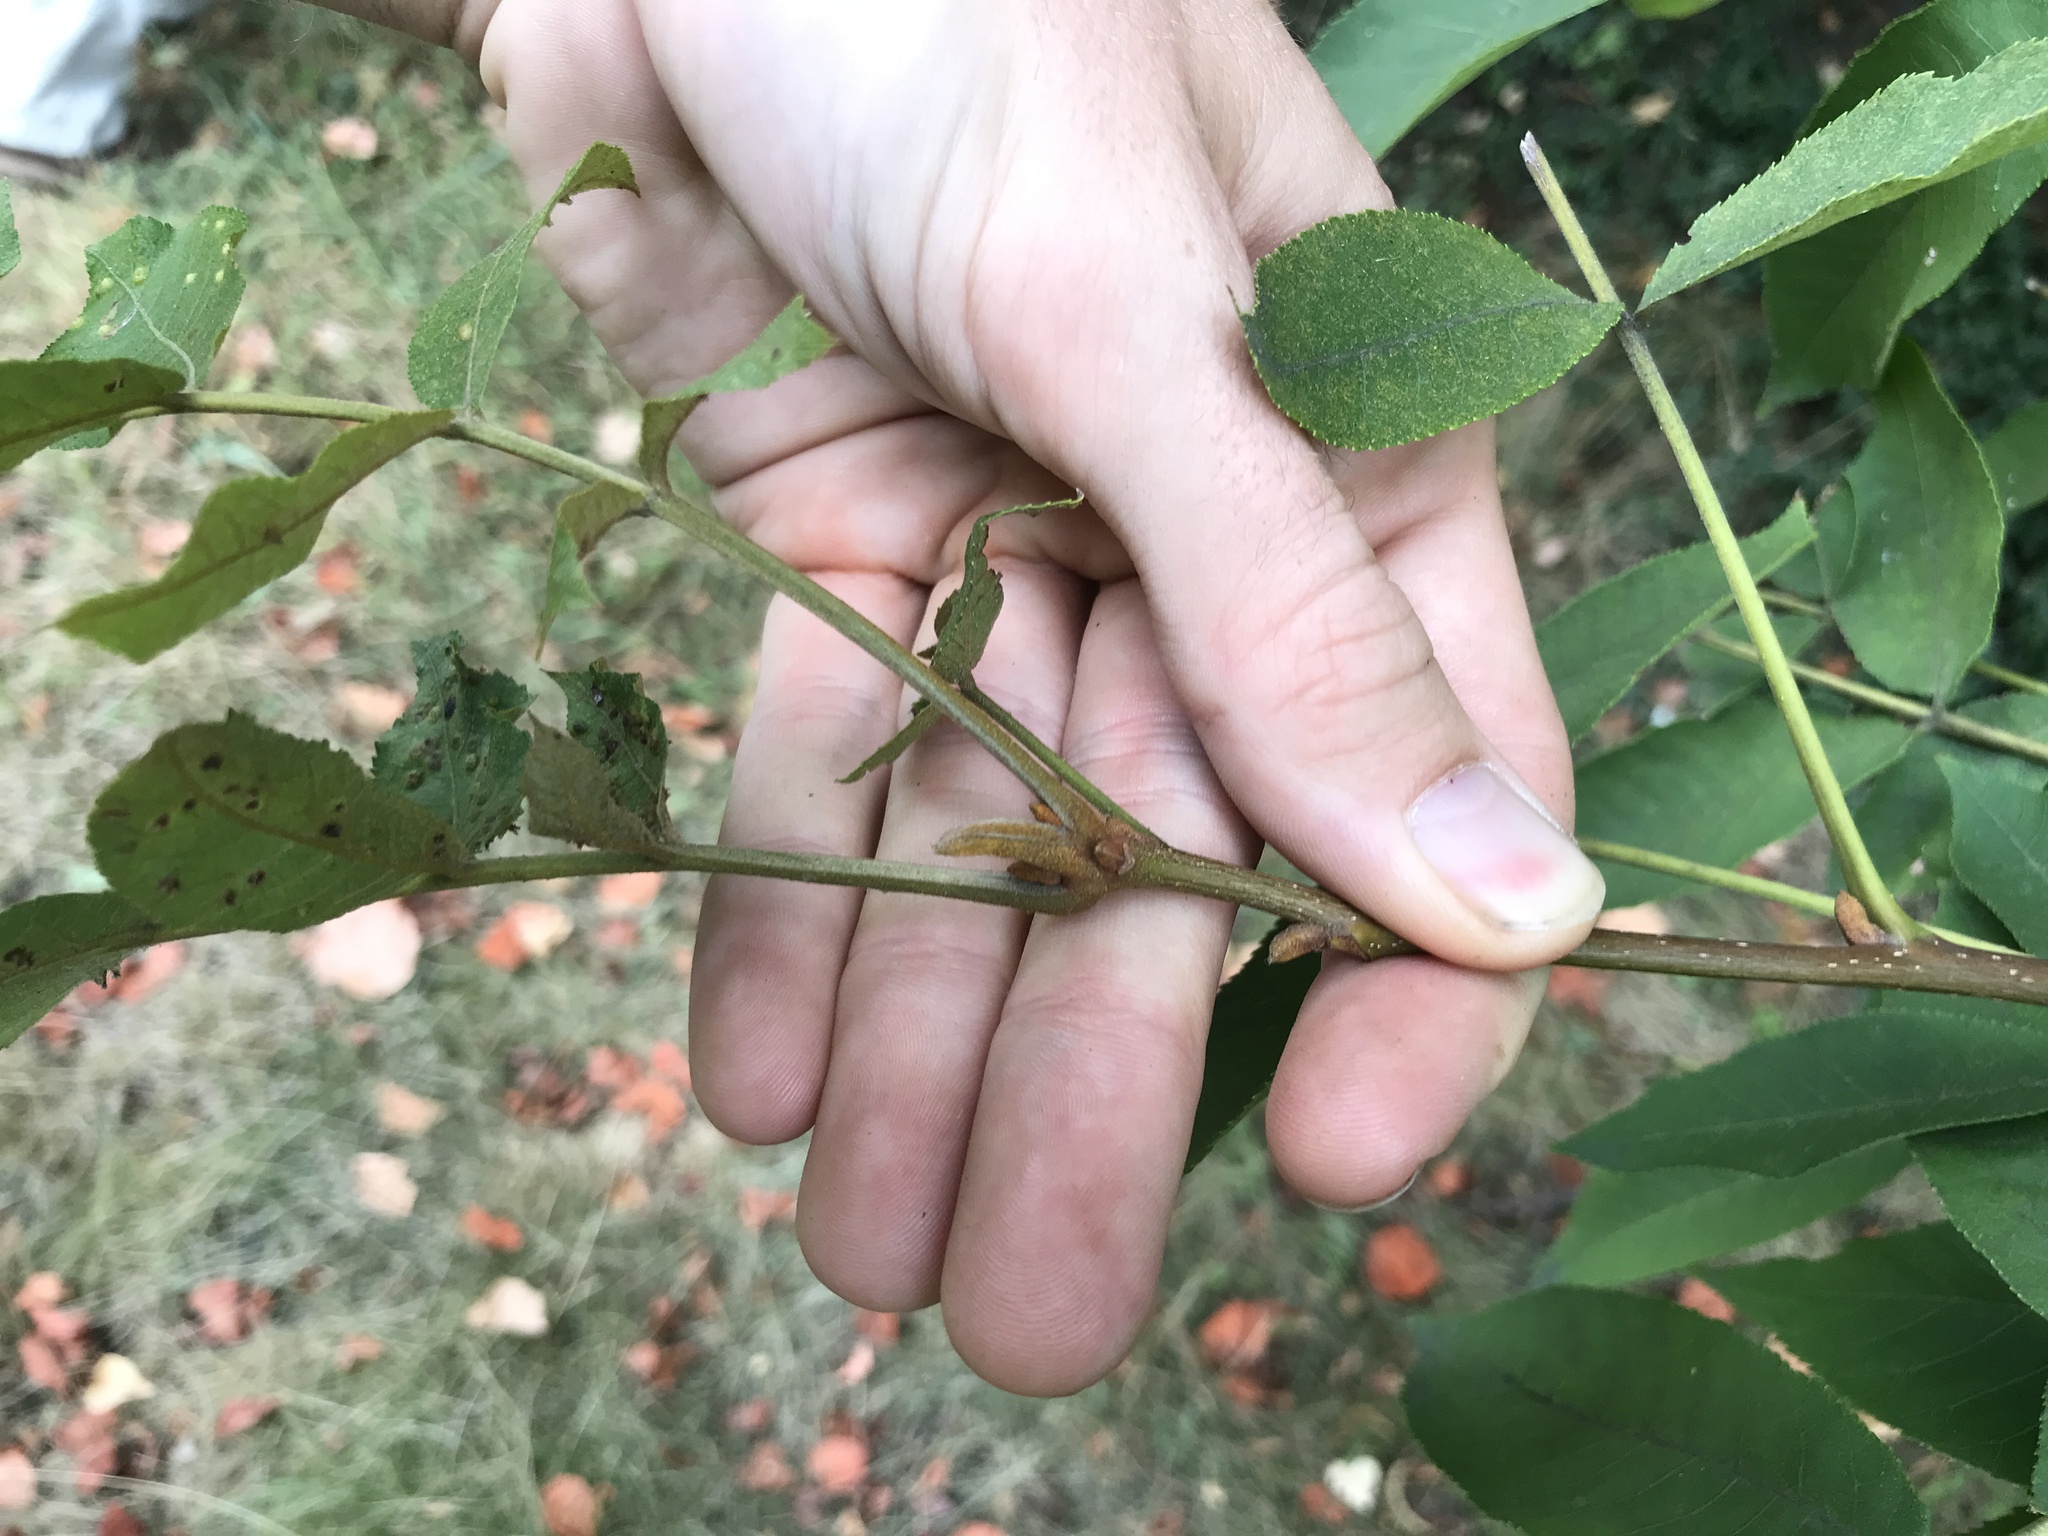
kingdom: Plantae
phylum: Tracheophyta
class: Magnoliopsida
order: Fagales
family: Juglandaceae
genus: Carya
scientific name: Carya cordiformis
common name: Bitternut hickory
